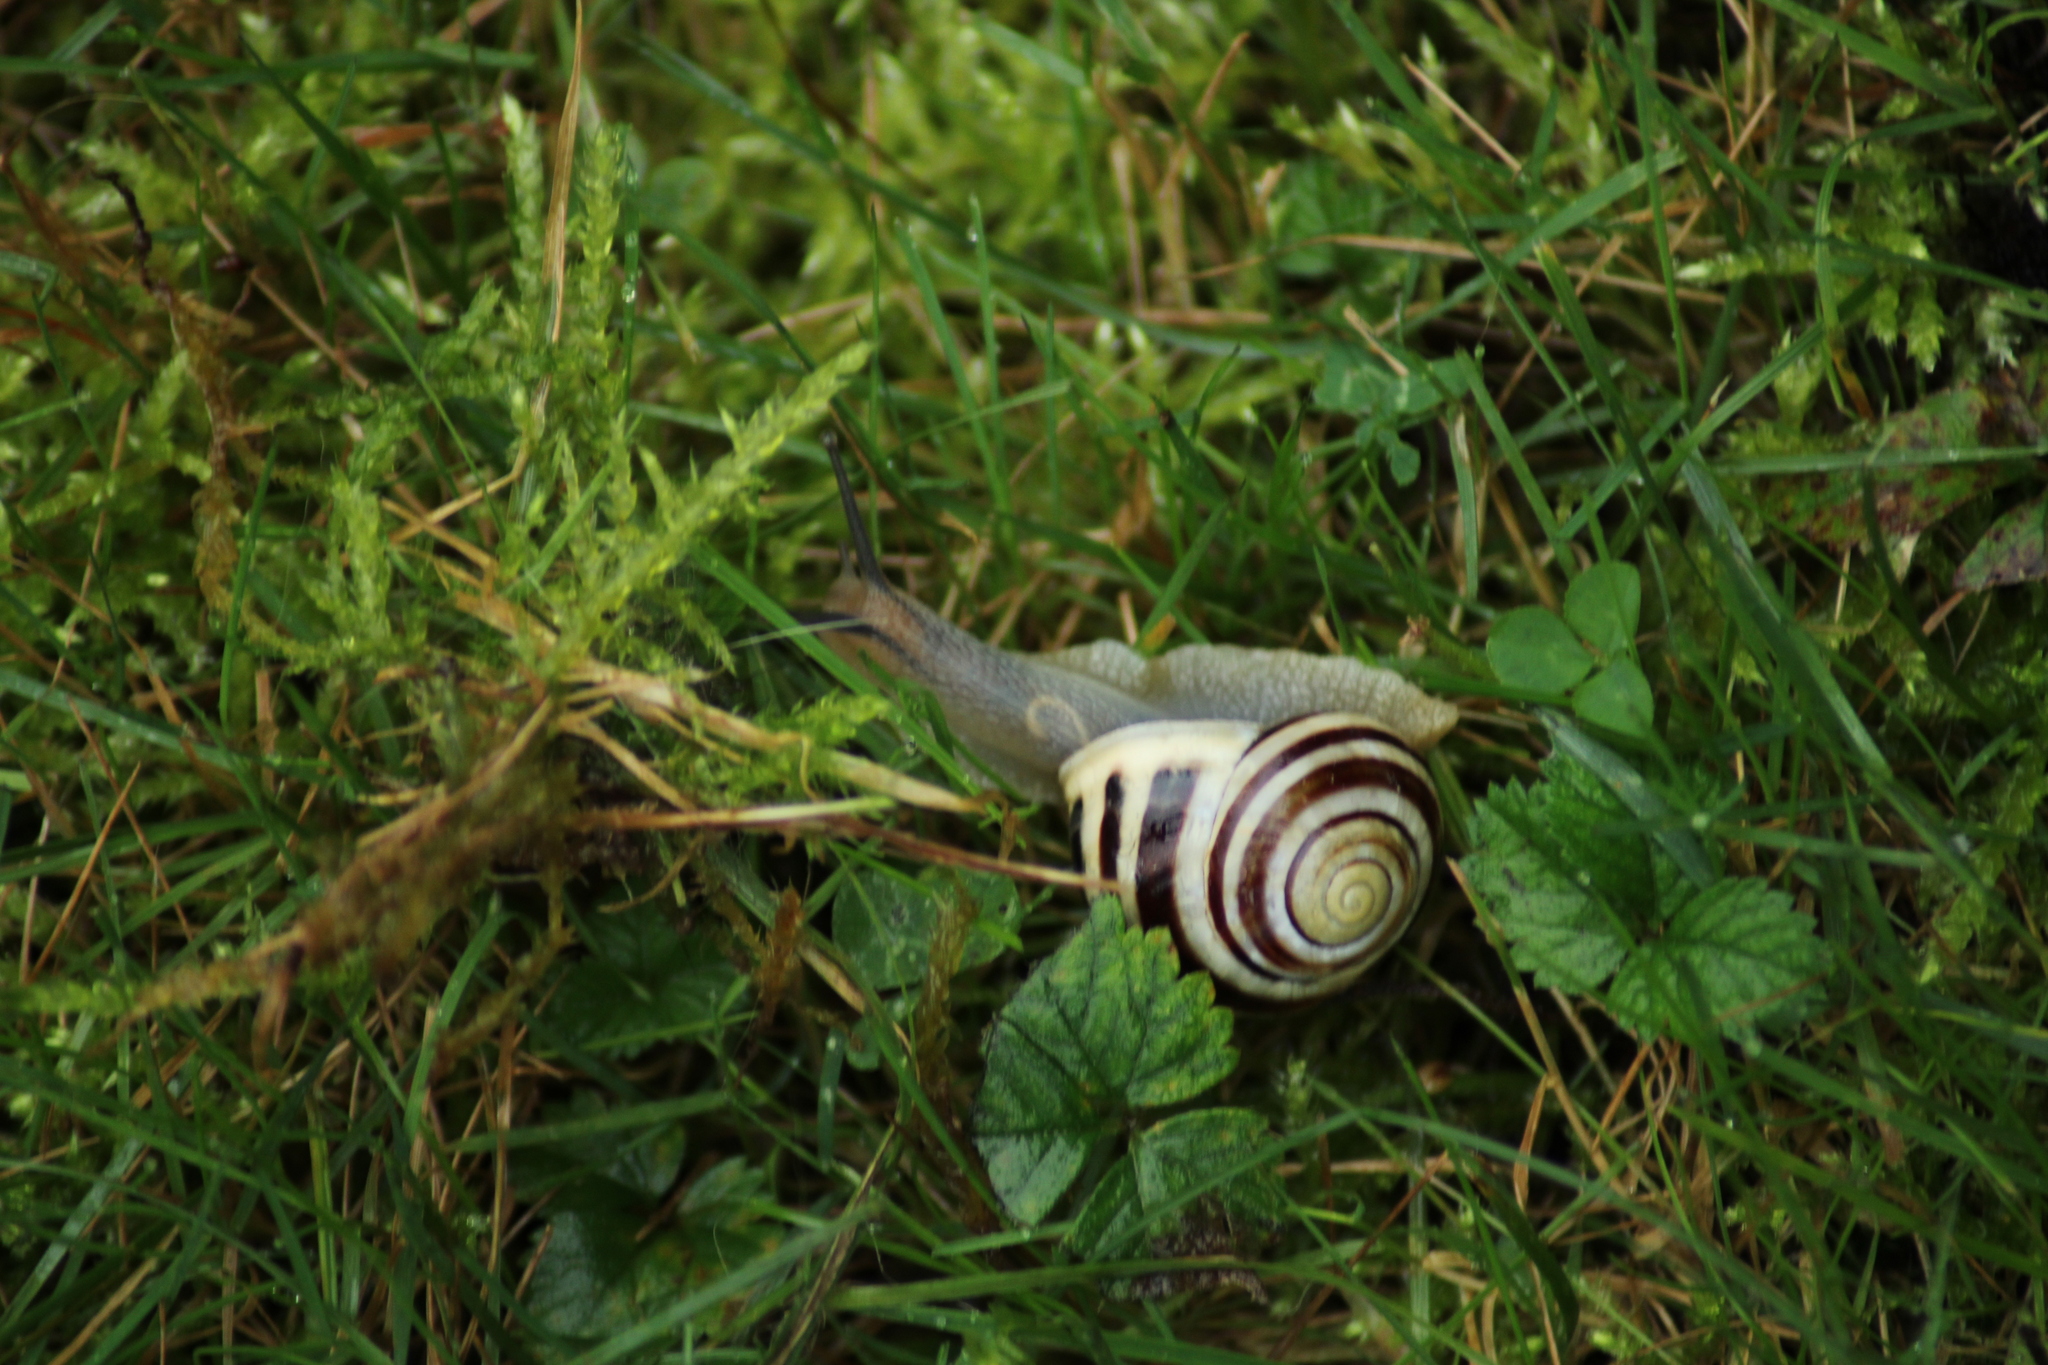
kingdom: Animalia
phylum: Mollusca
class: Gastropoda
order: Stylommatophora
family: Helicidae
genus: Cepaea
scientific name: Cepaea hortensis
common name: White-lip gardensnail
